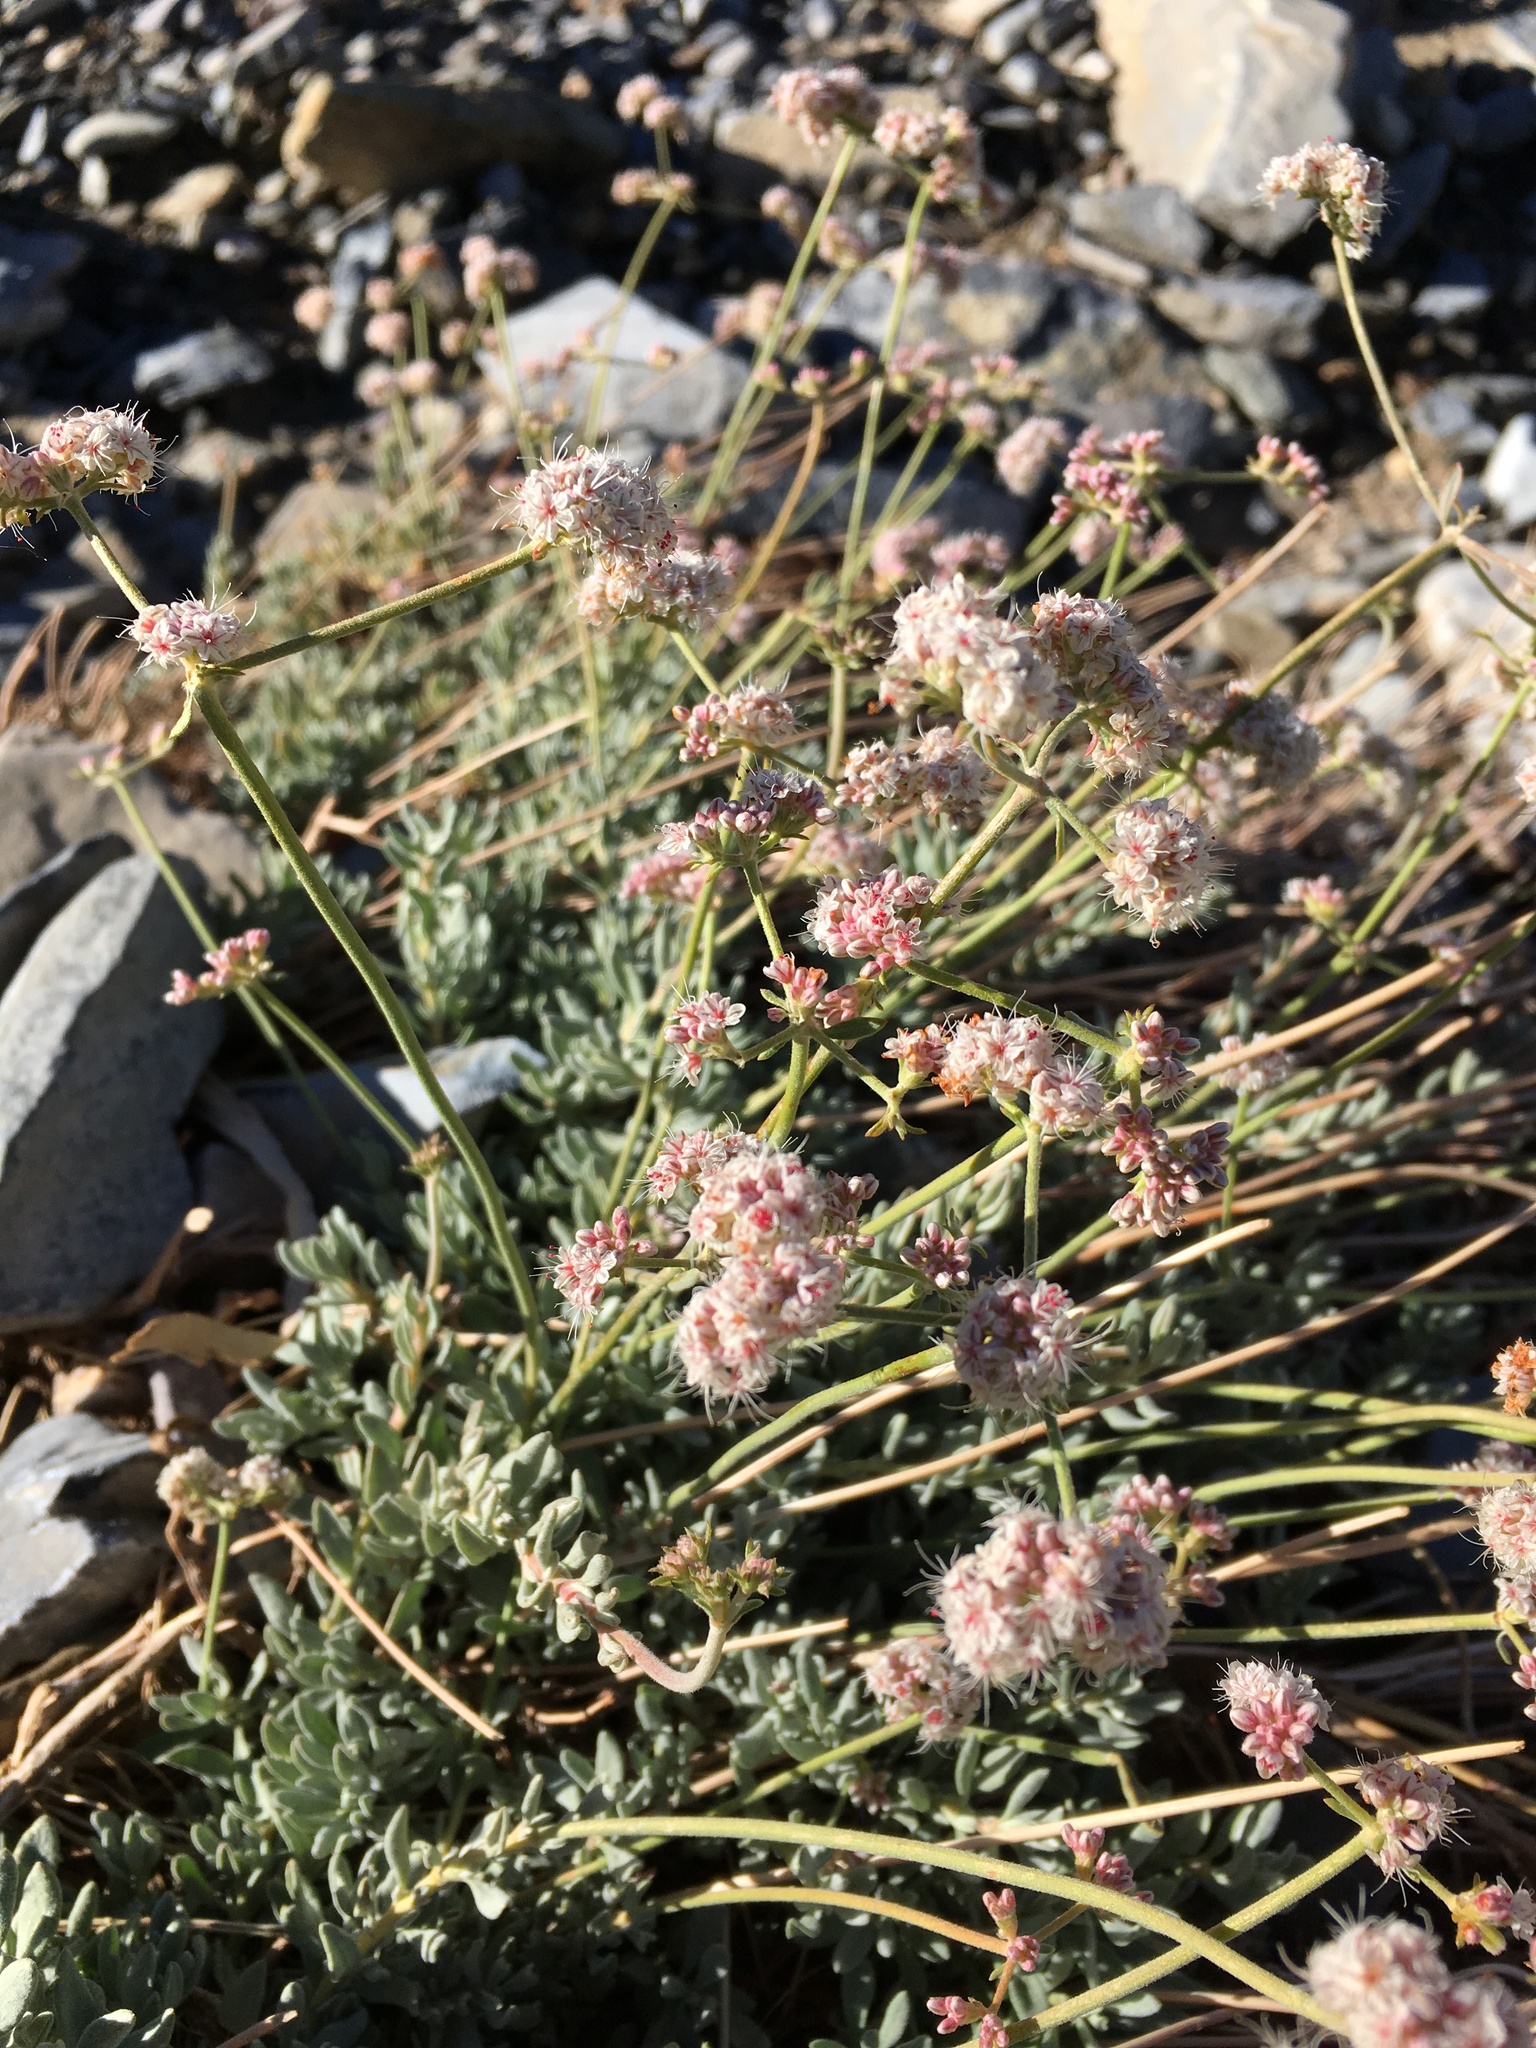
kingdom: Plantae
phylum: Tracheophyta
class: Magnoliopsida
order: Caryophyllales
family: Polygonaceae
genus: Eriogonum
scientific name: Eriogonum fasciculatum
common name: California wild buckwheat
